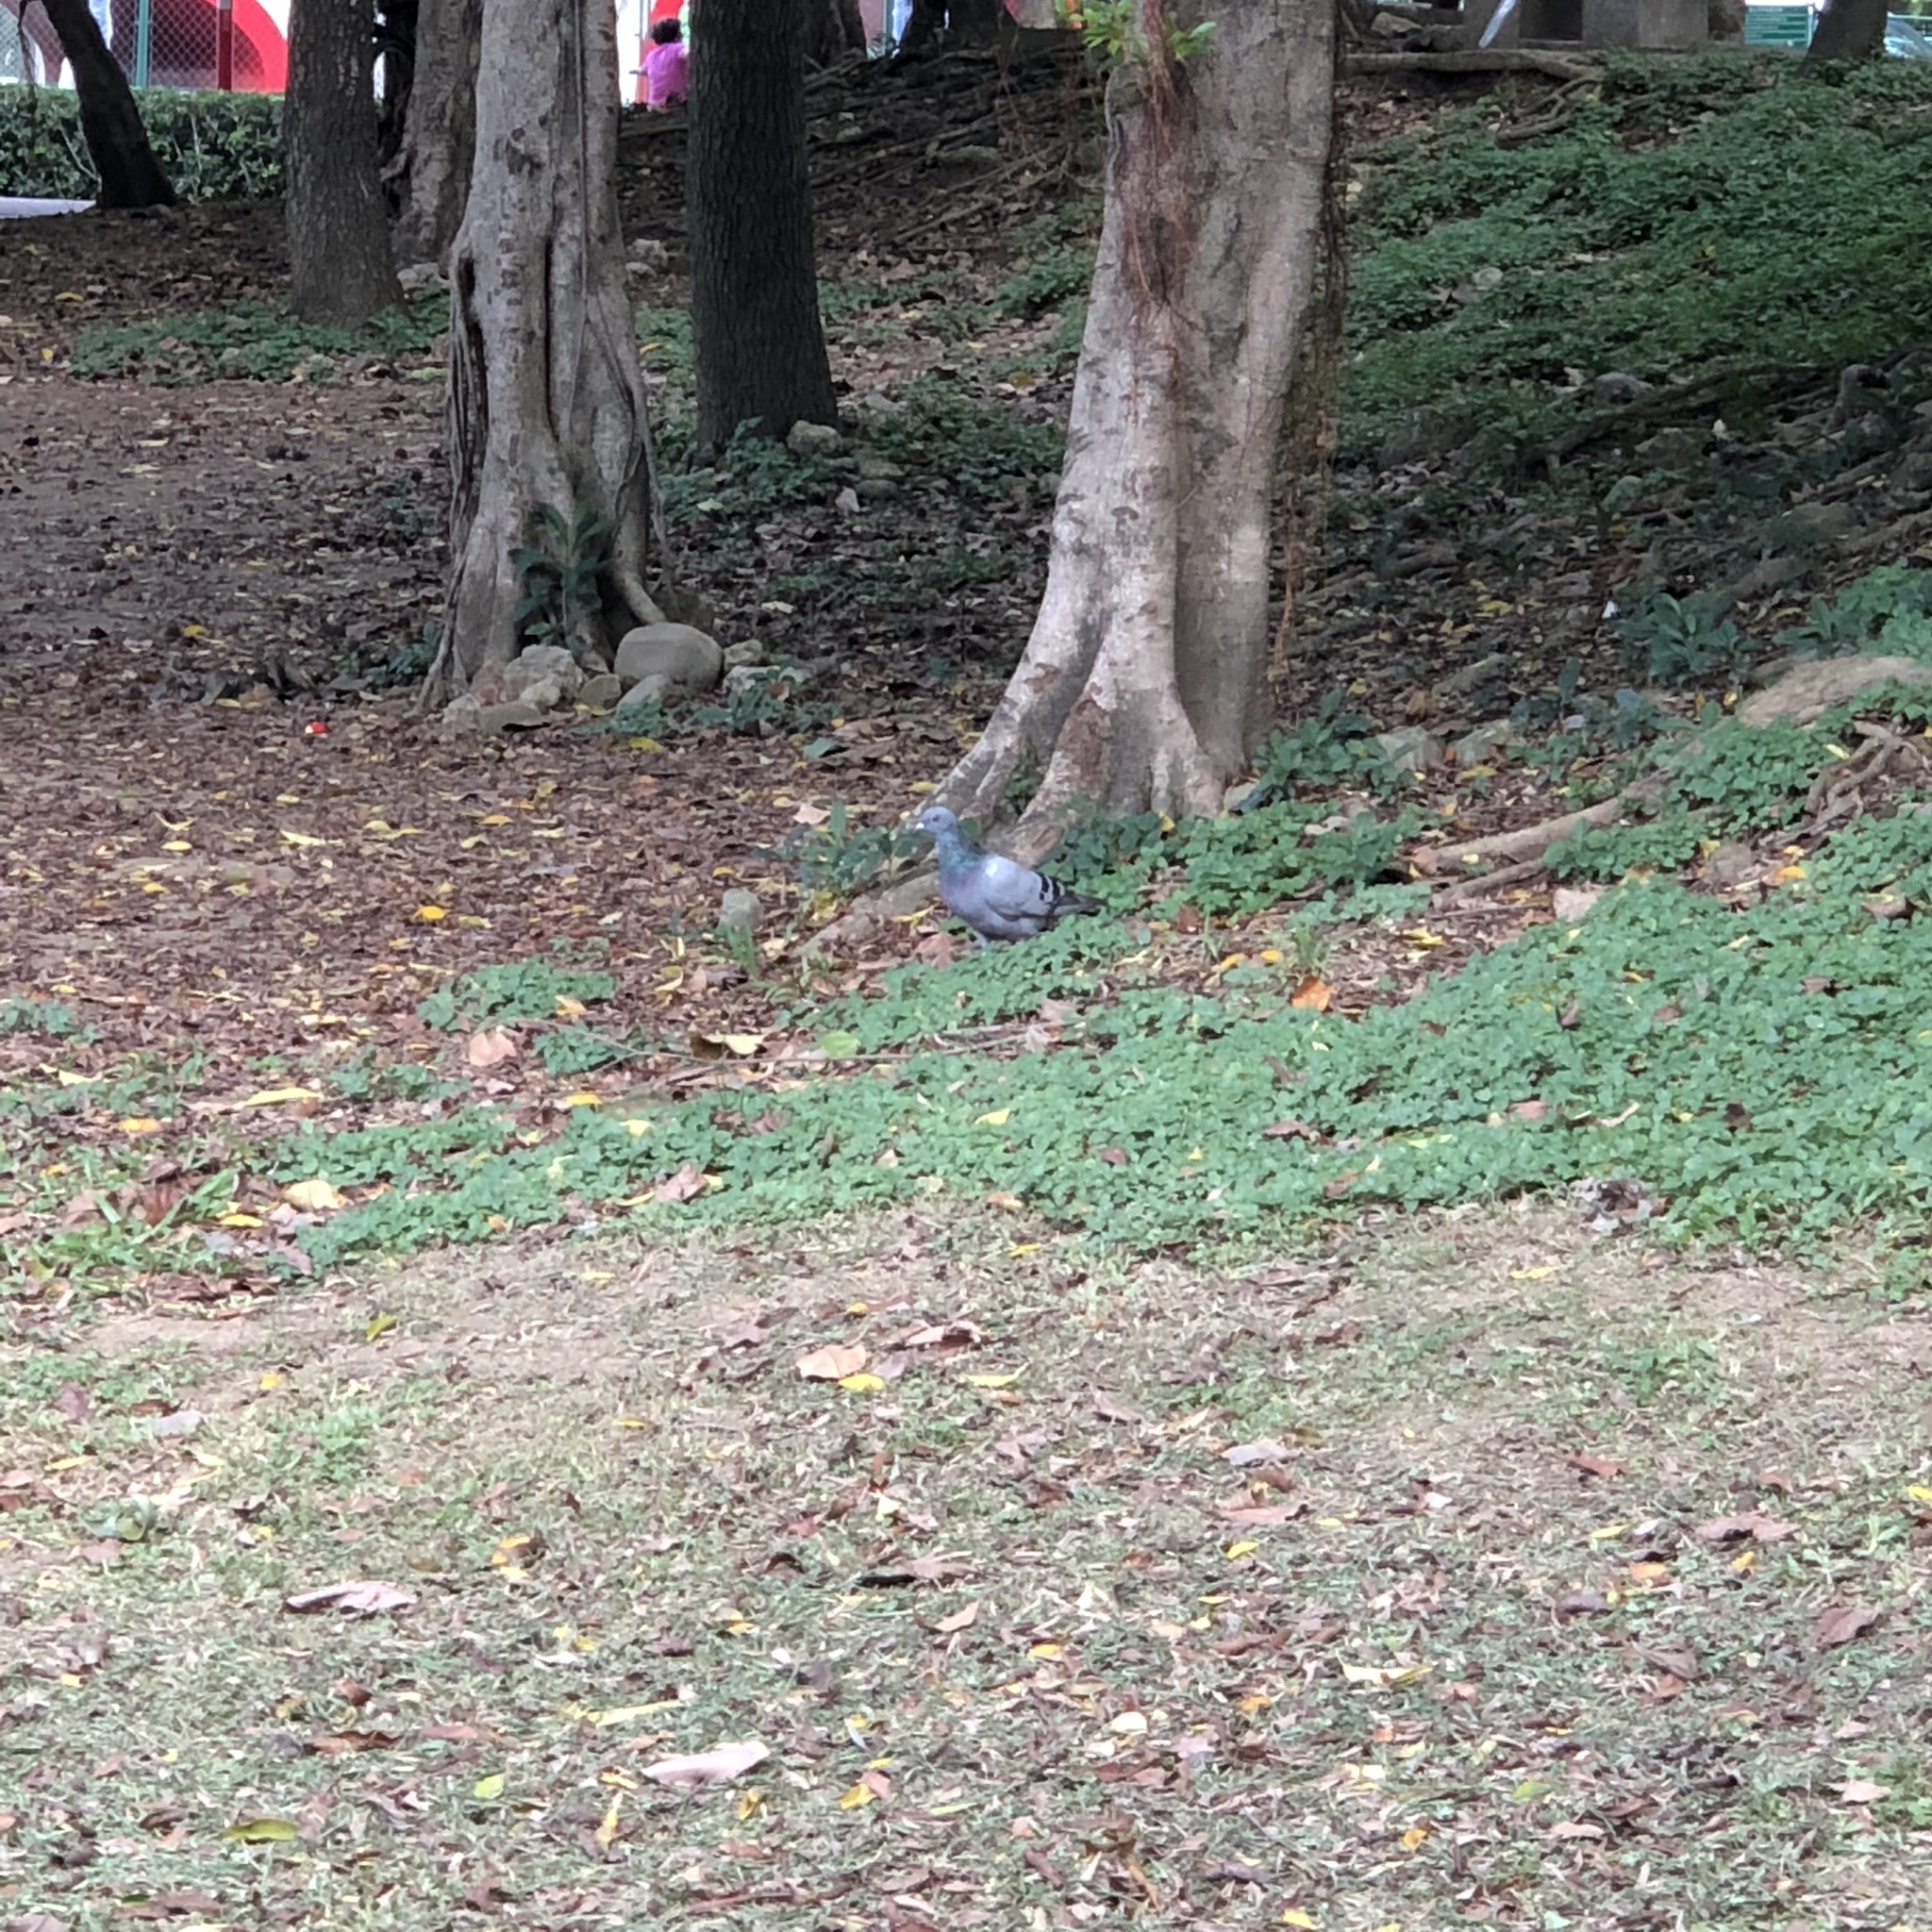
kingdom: Animalia
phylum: Chordata
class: Aves
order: Columbiformes
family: Columbidae
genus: Columba
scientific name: Columba livia
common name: Rock pigeon
